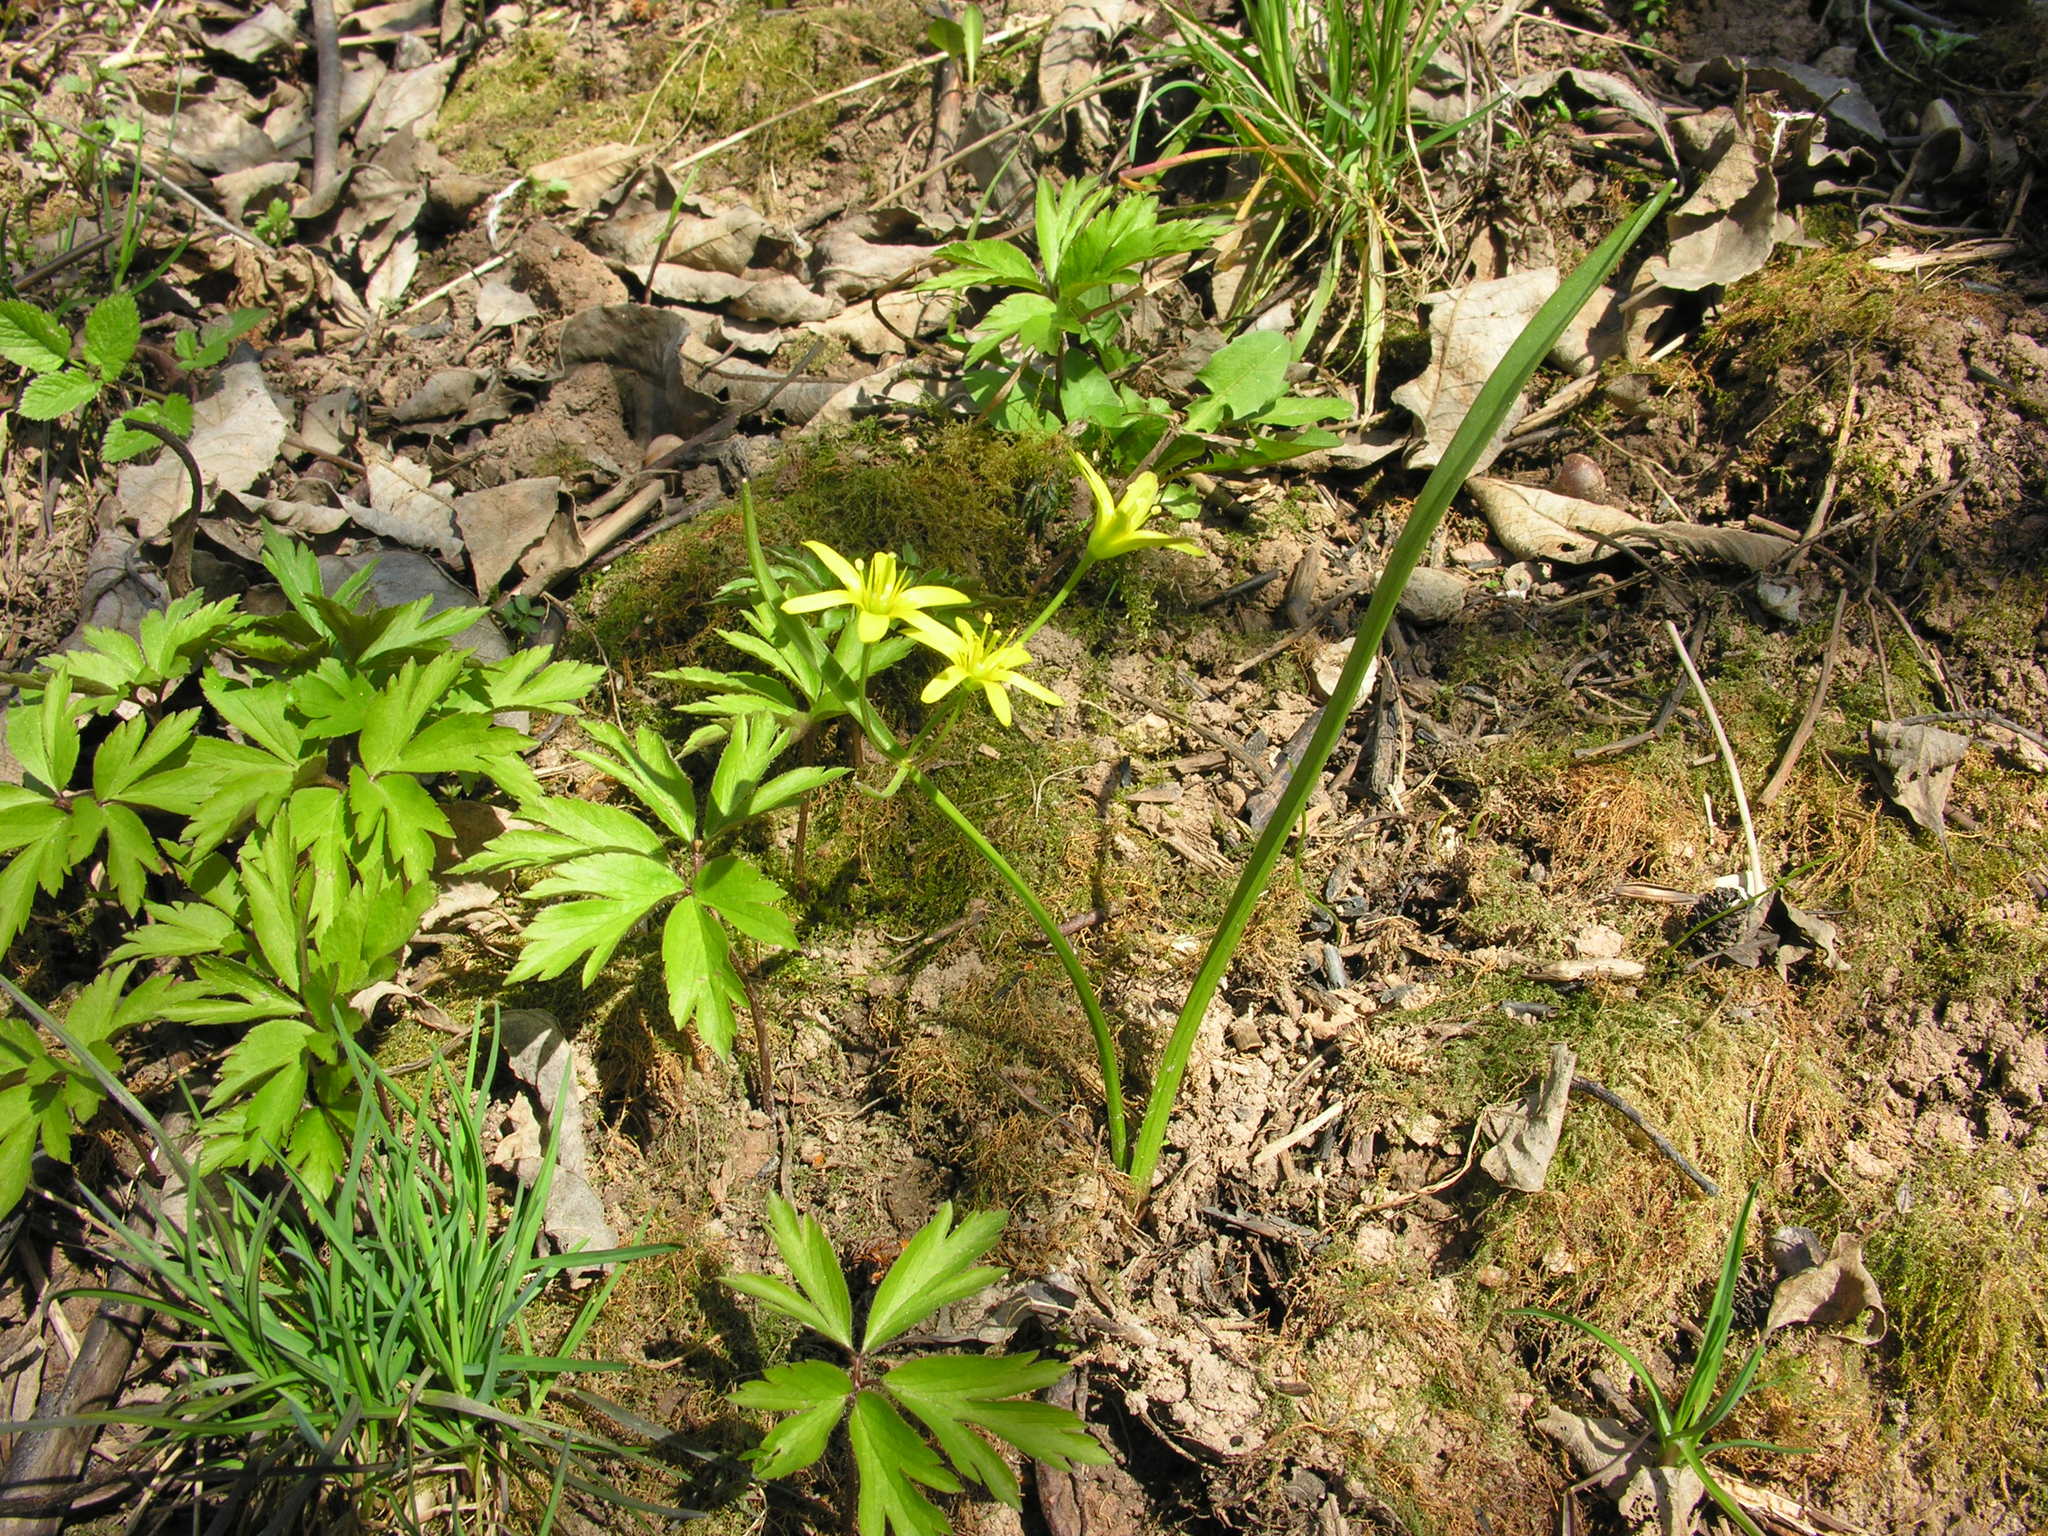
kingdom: Plantae
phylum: Tracheophyta
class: Liliopsida
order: Liliales
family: Liliaceae
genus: Gagea
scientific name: Gagea lutea
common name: Yellow star-of-bethlehem
